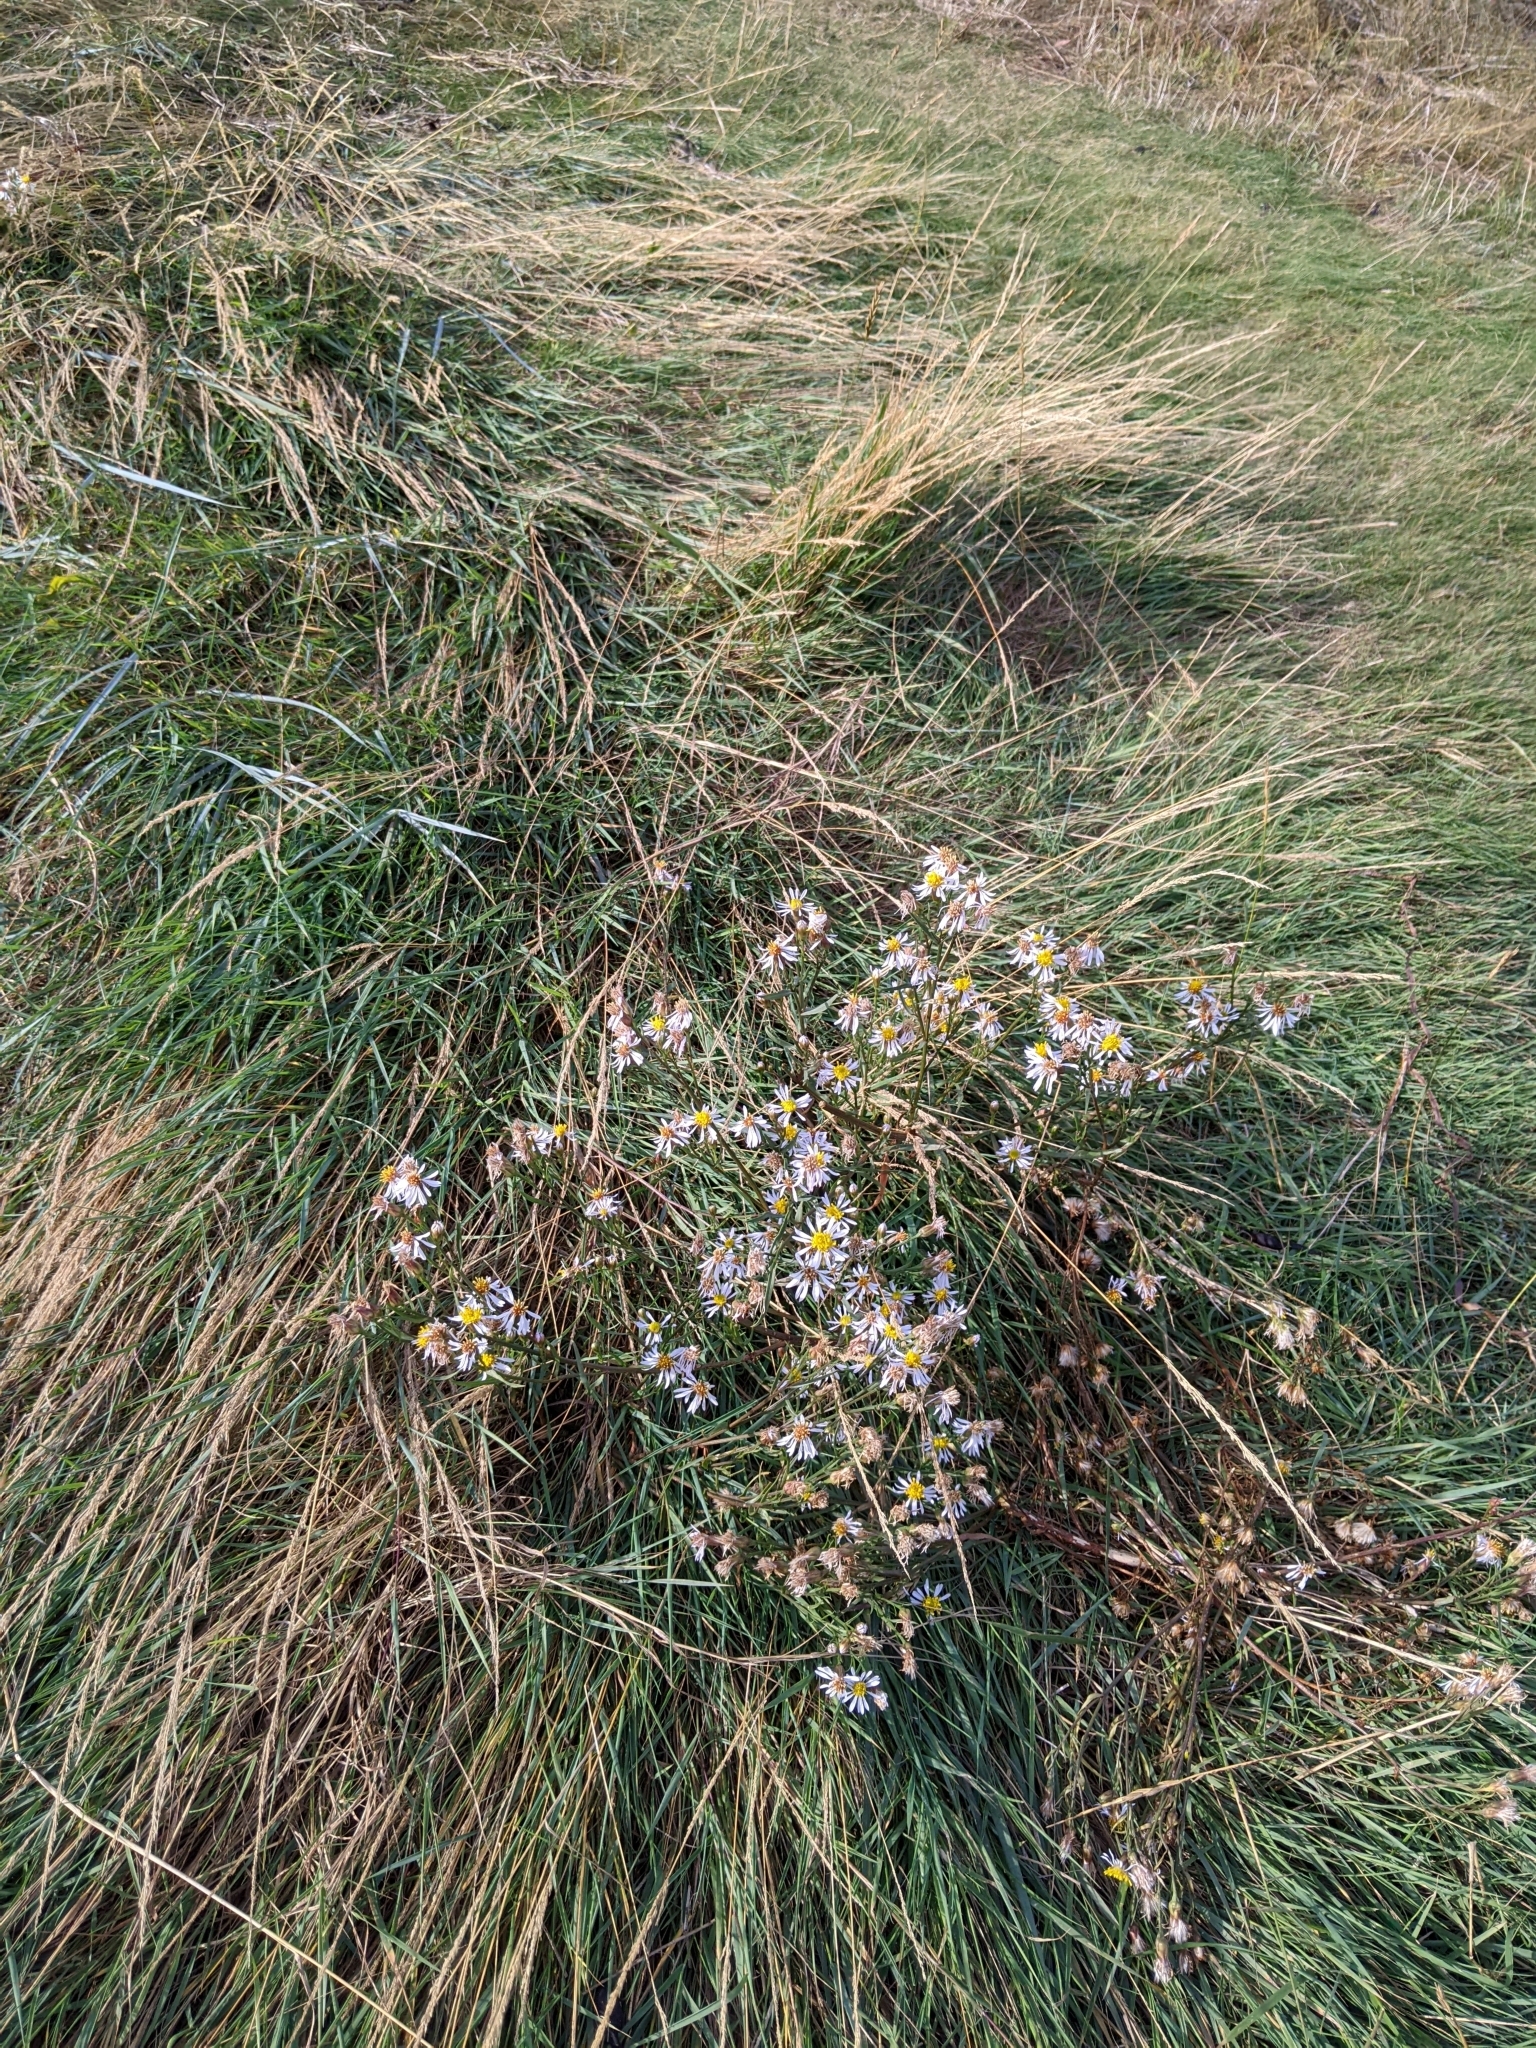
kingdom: Plantae
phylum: Tracheophyta
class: Magnoliopsida
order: Asterales
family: Asteraceae
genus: Tripolium
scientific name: Tripolium pannonicum
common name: Sea aster
